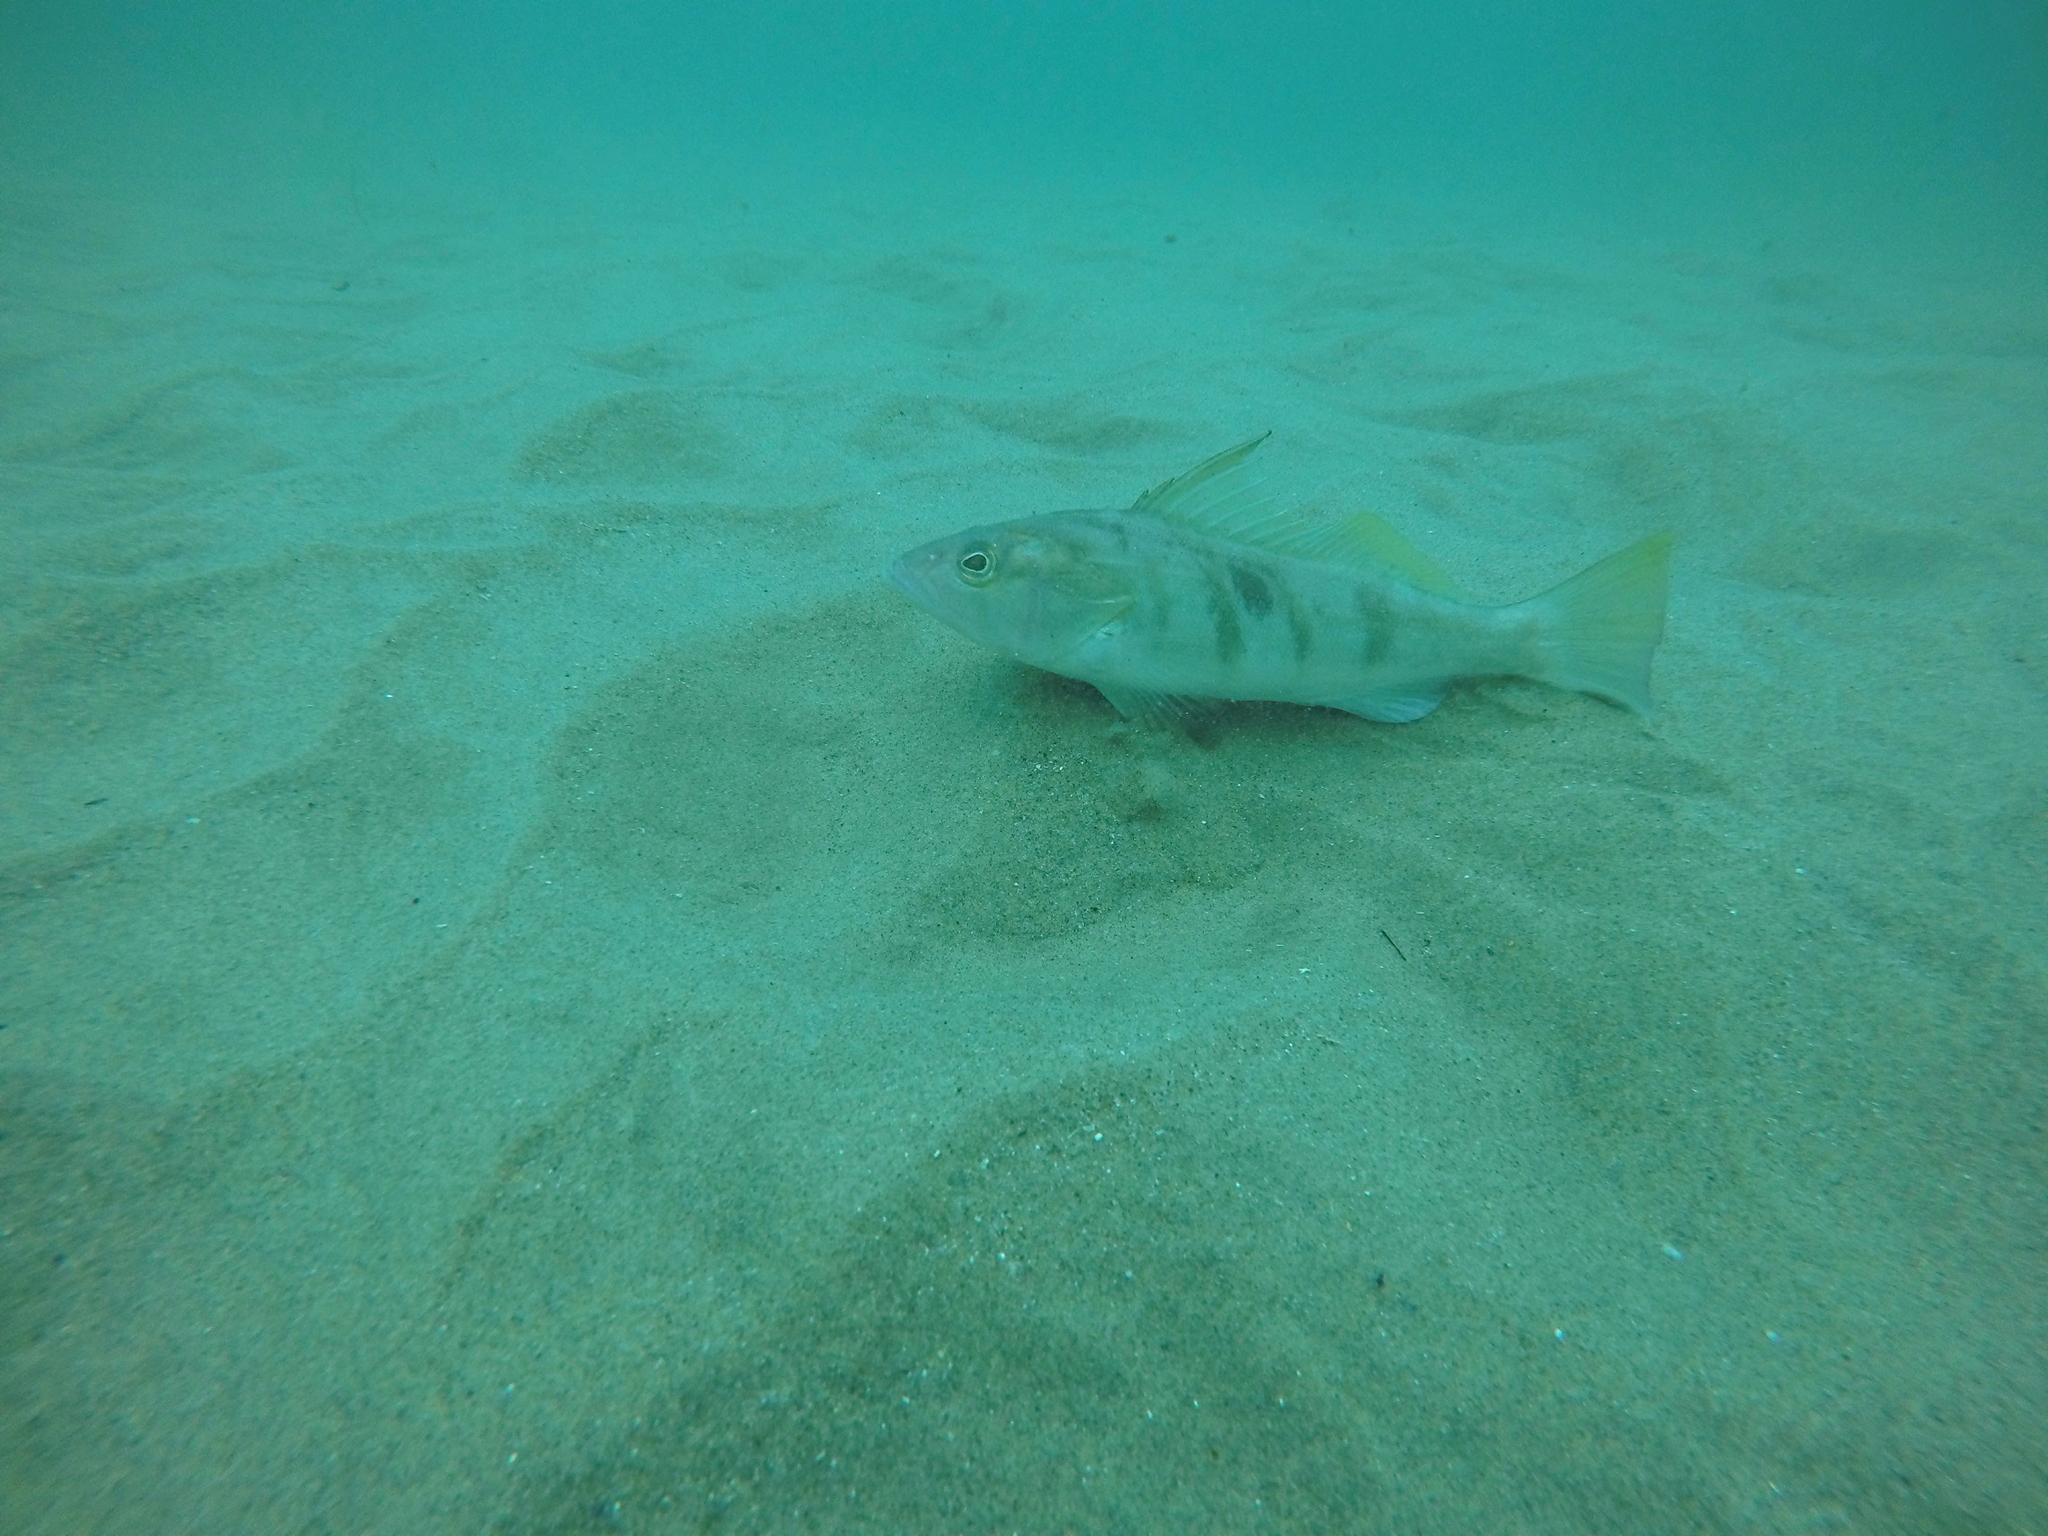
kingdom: Animalia
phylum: Chordata
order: Perciformes
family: Serranidae
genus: Paralabrax
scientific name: Paralabrax nebulifer
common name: Barred sand bass
